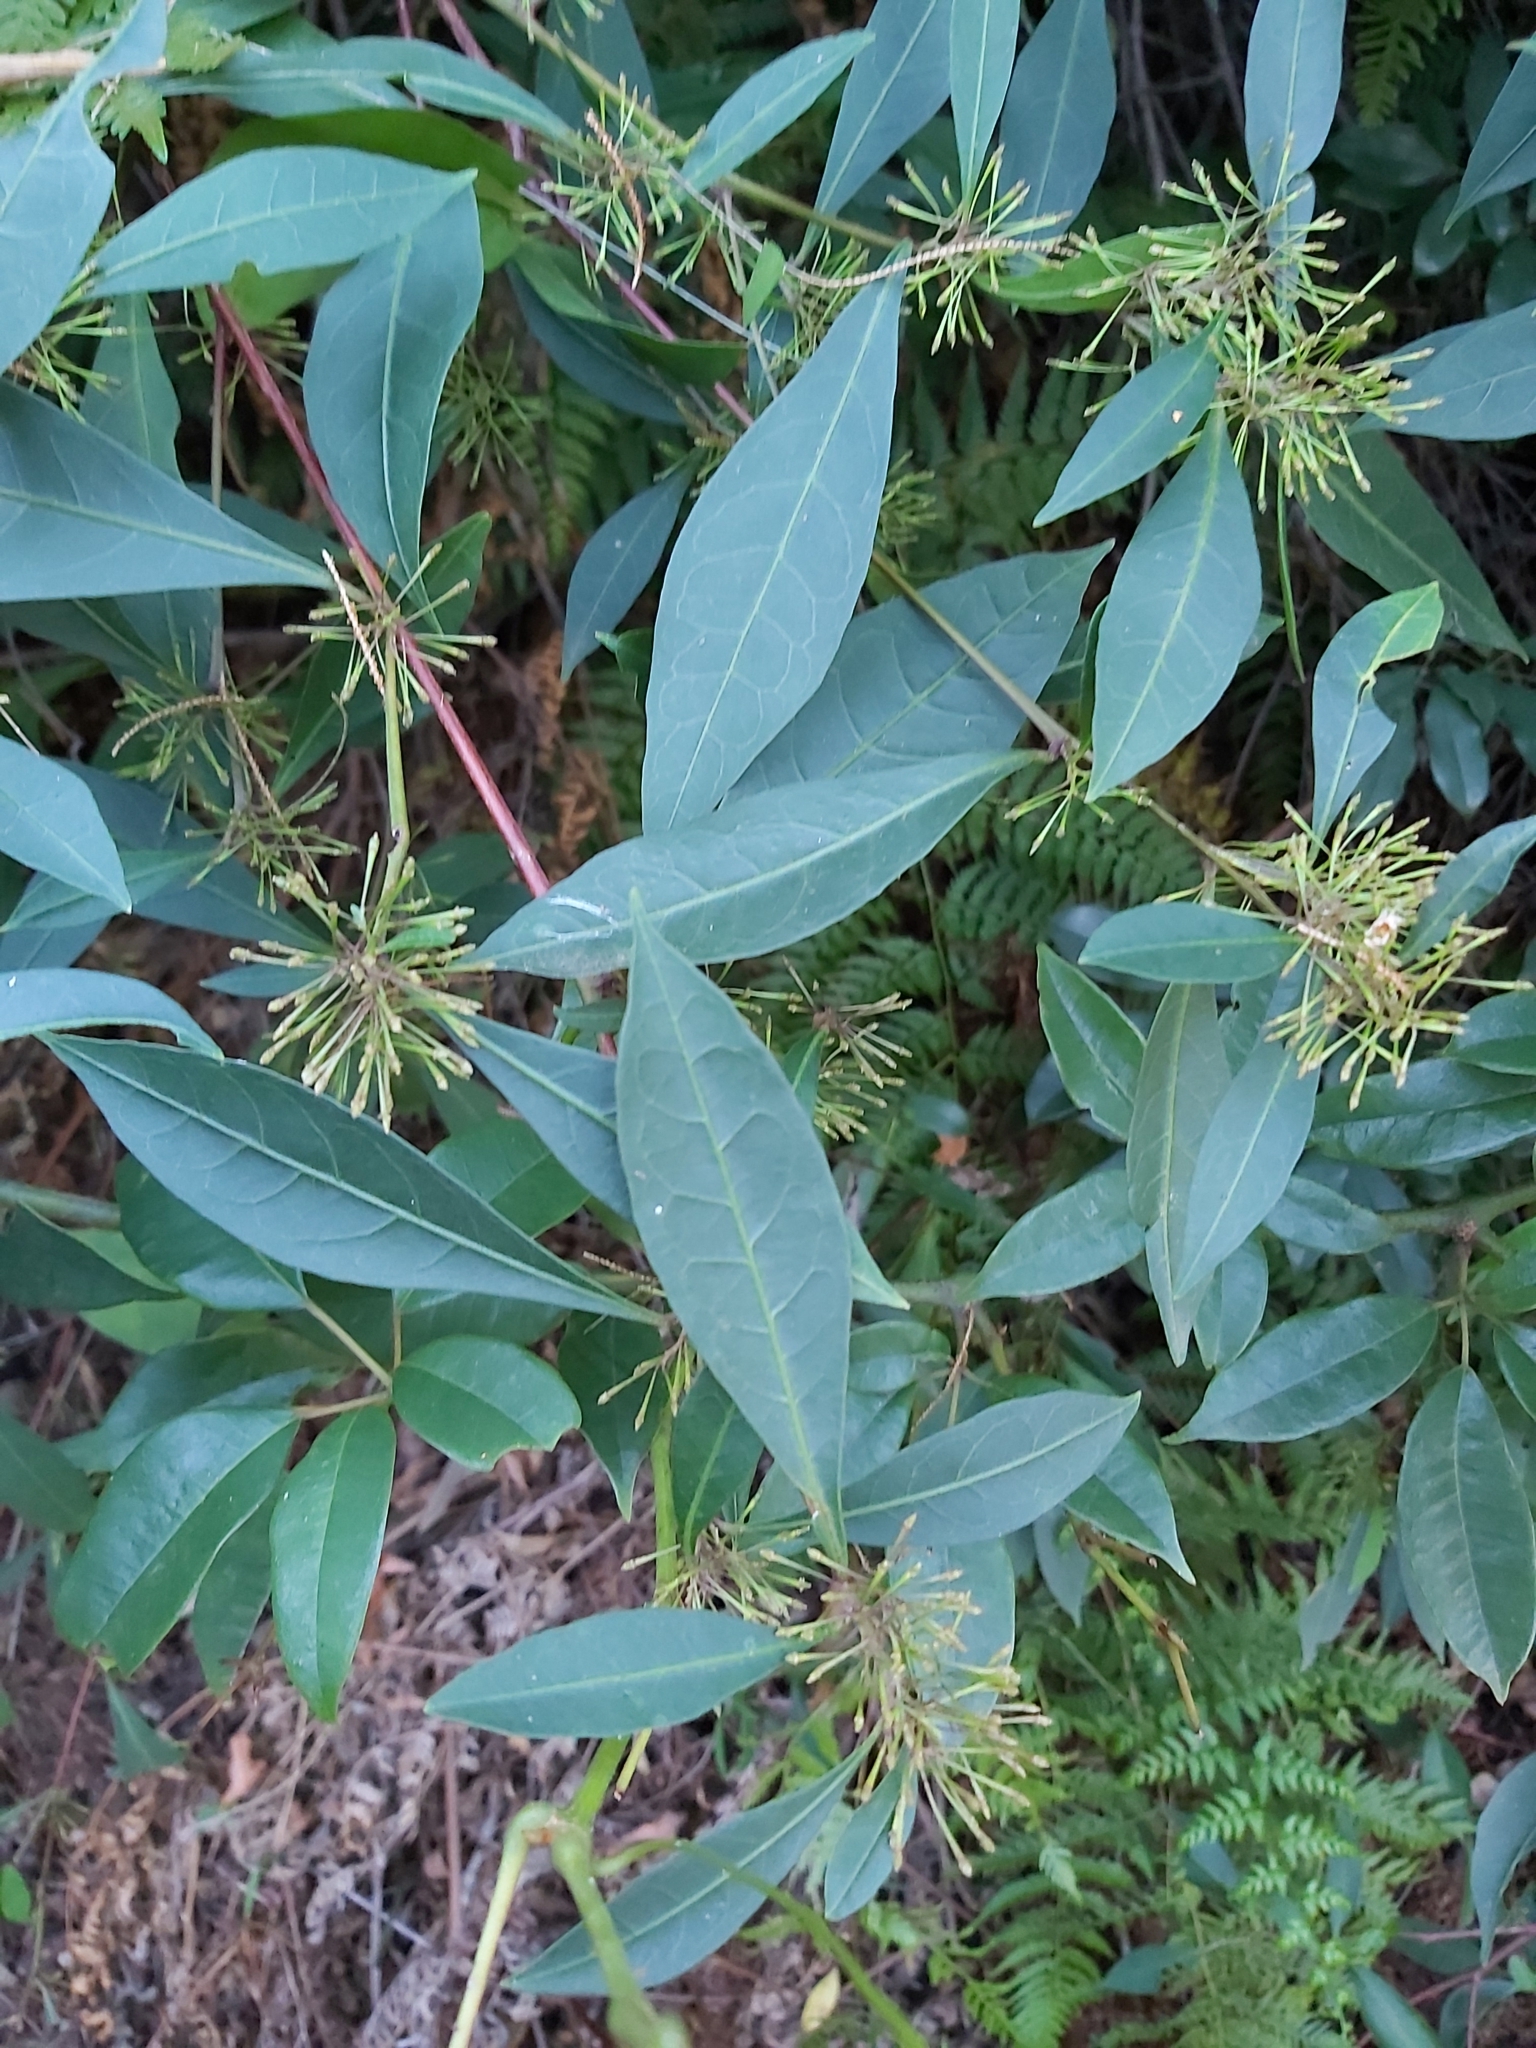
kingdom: Plantae
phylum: Tracheophyta
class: Magnoliopsida
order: Sapindales
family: Sapindaceae
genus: Dodonaea
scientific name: Dodonaea triquetra
